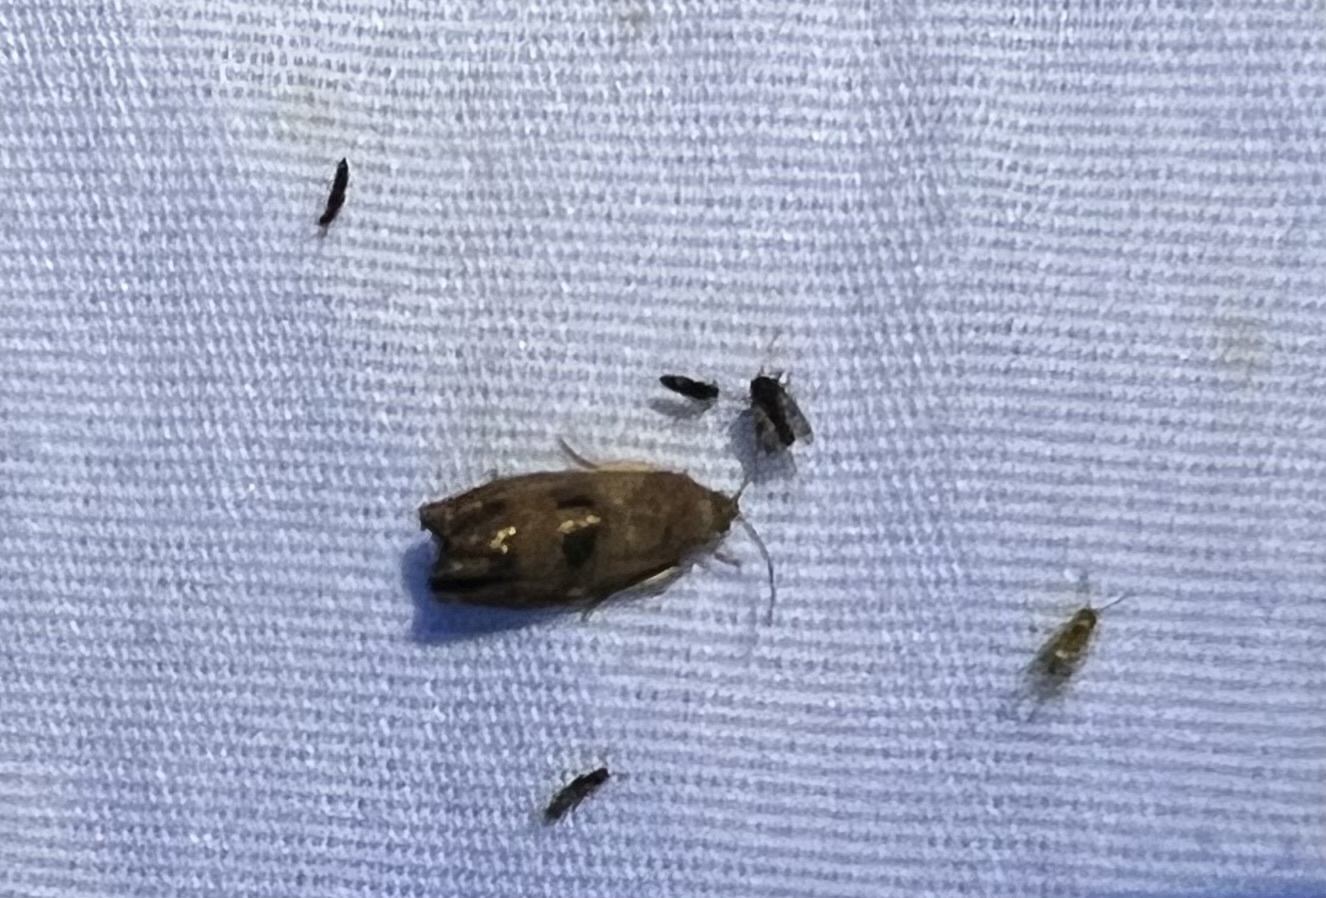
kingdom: Animalia
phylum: Arthropoda
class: Insecta
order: Lepidoptera
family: Tortricidae
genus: Cydia
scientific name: Cydia latiferreana
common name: Filbertworm moth
